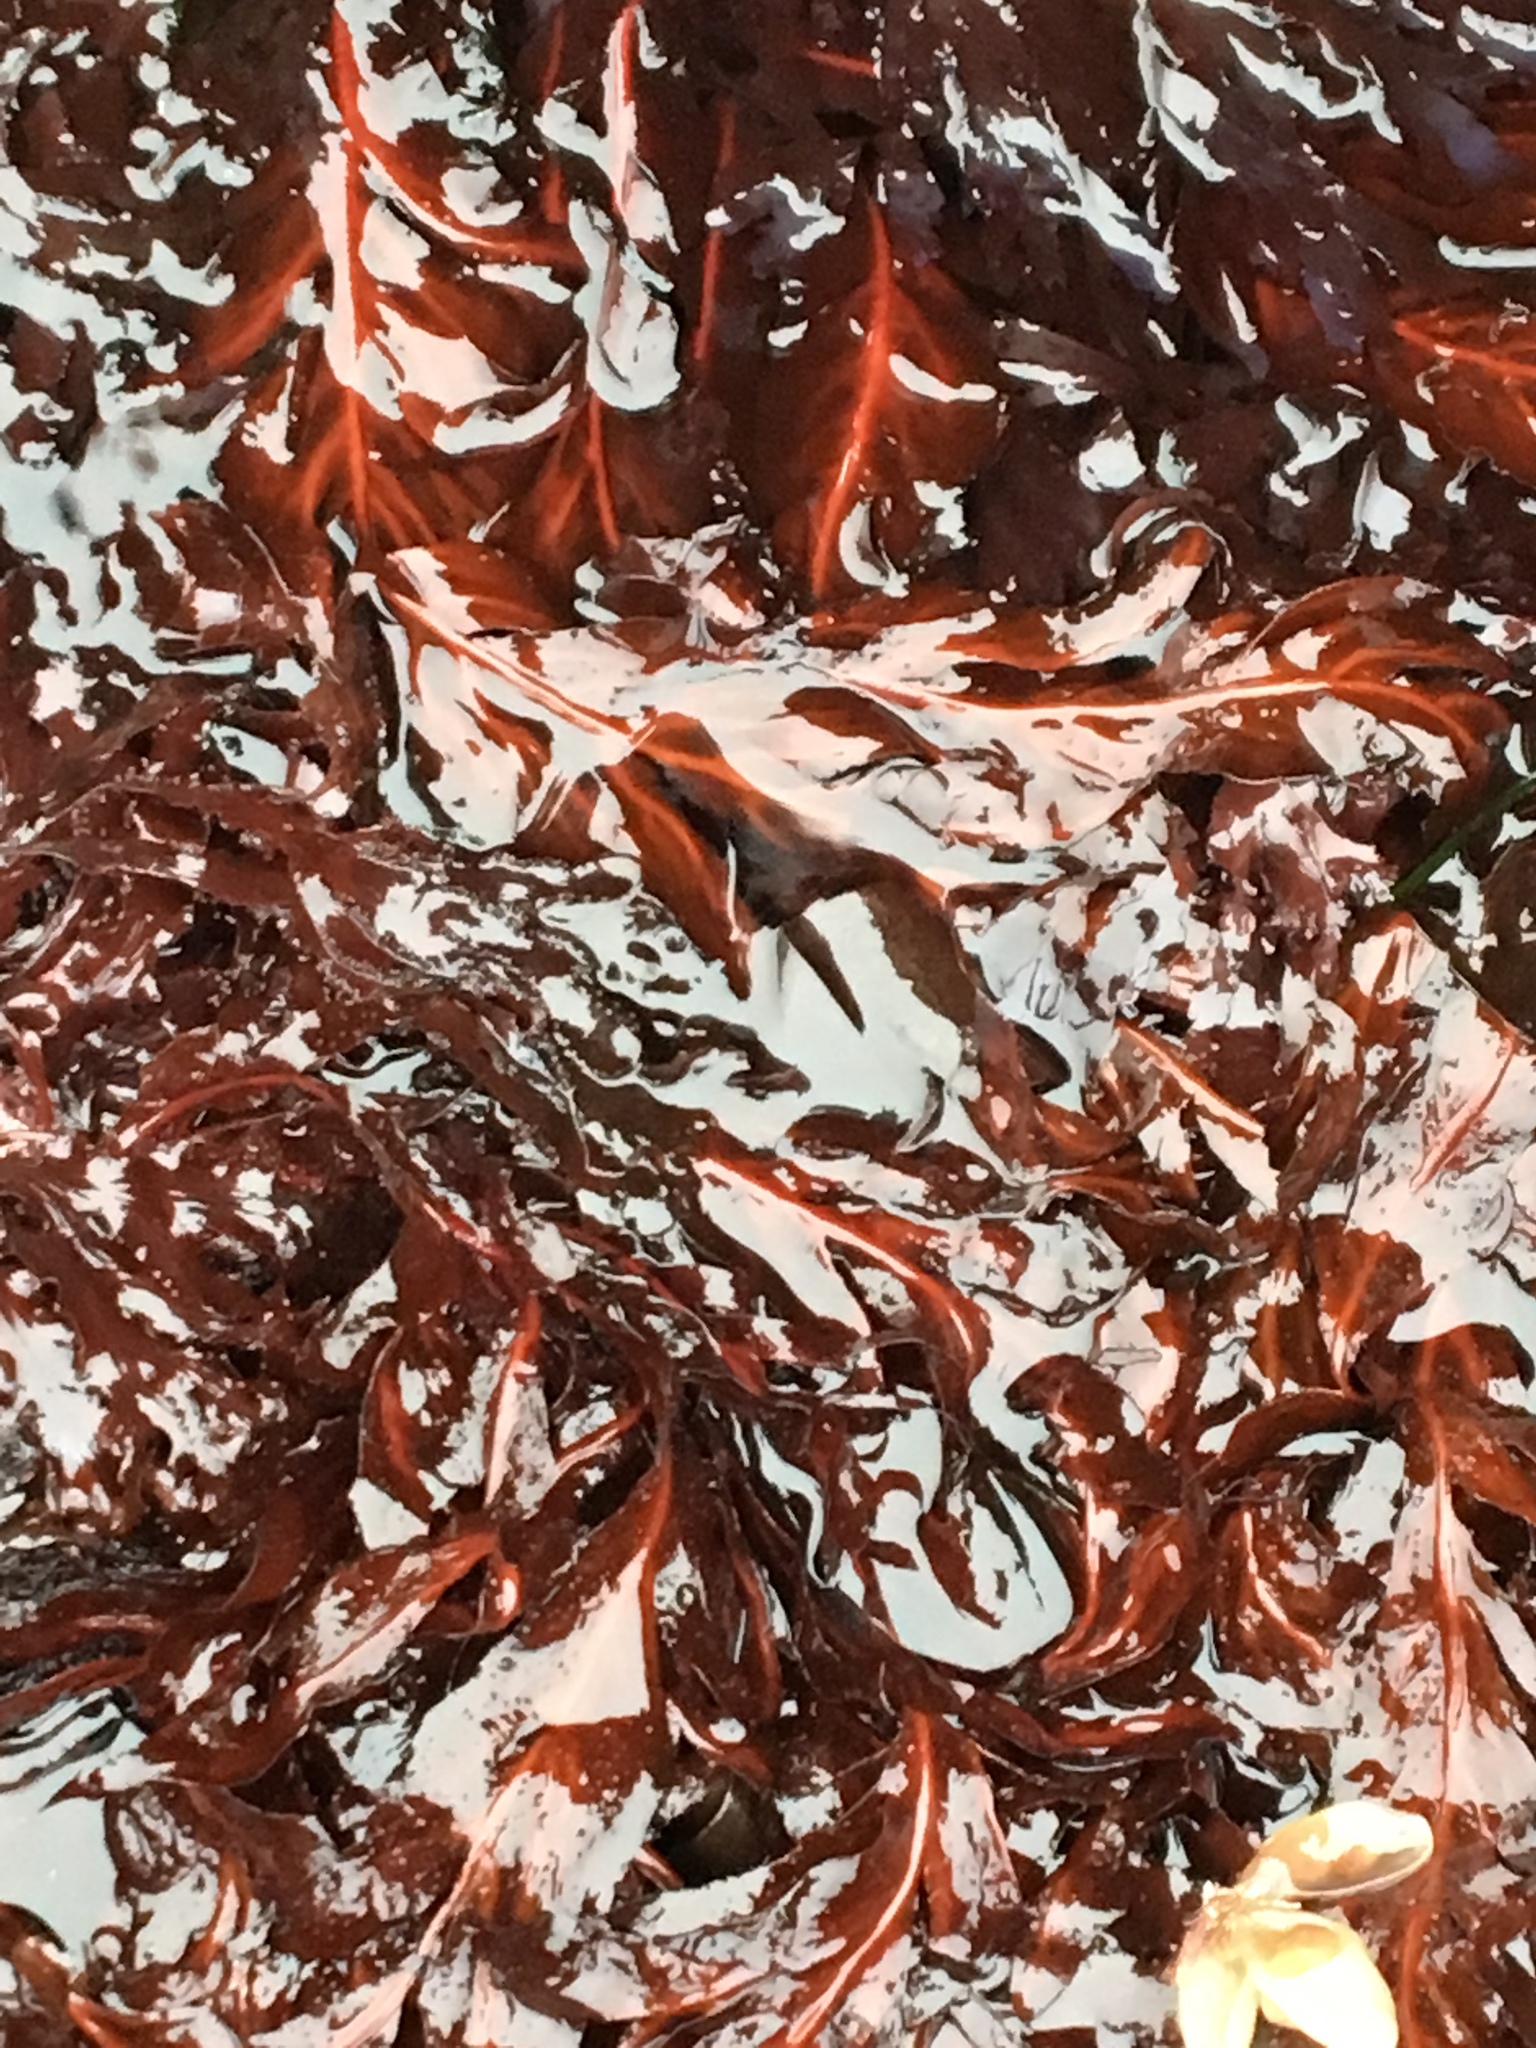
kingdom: Plantae
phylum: Rhodophyta
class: Florideophyceae
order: Gigartinales
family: Kallymeniaceae
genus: Erythrophyllum
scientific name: Erythrophyllum delesserioides
